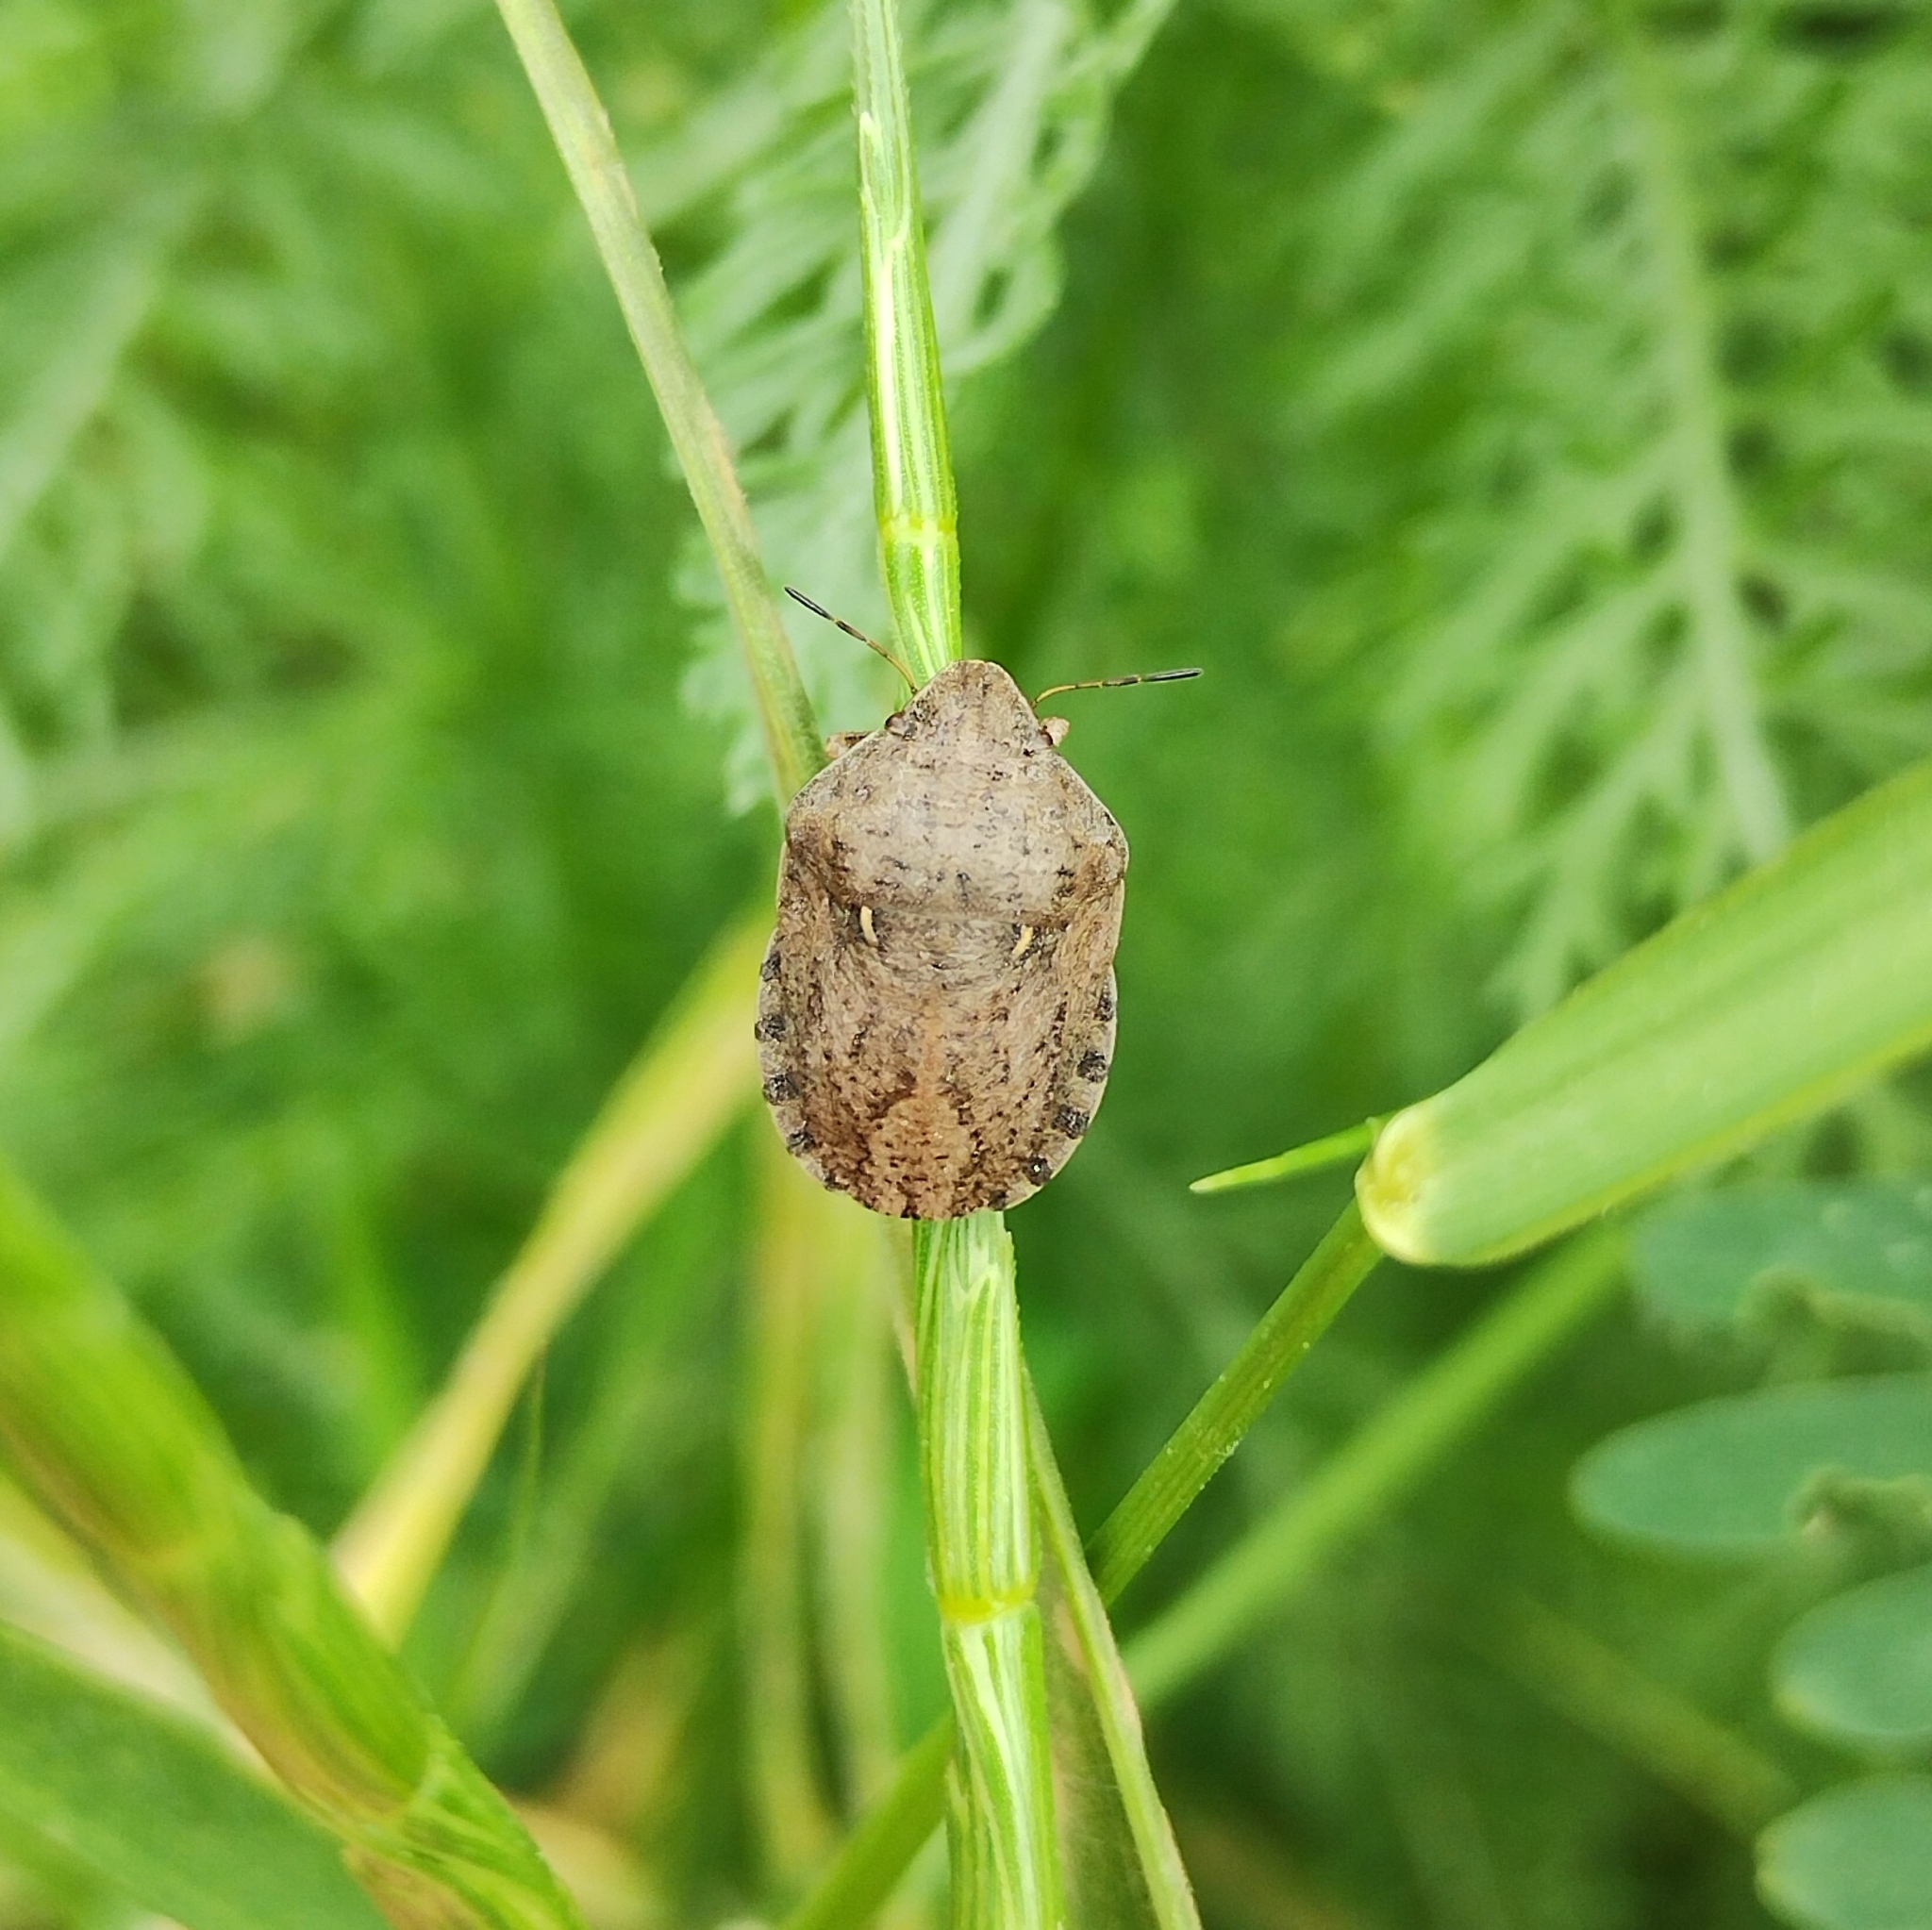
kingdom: Animalia
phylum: Arthropoda
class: Insecta
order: Hemiptera
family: Scutelleridae
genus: Eurygaster
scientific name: Eurygaster maura
